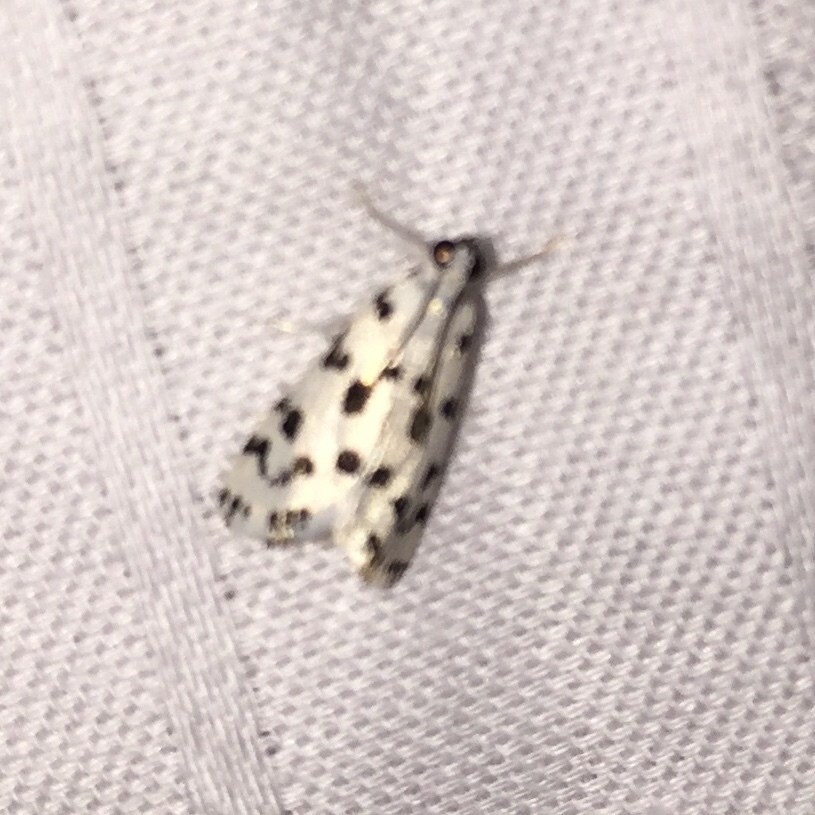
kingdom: Animalia
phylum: Arthropoda
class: Insecta
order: Lepidoptera
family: Crambidae
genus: Eustixia
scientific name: Eustixia pupula
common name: American cabbage pearl
